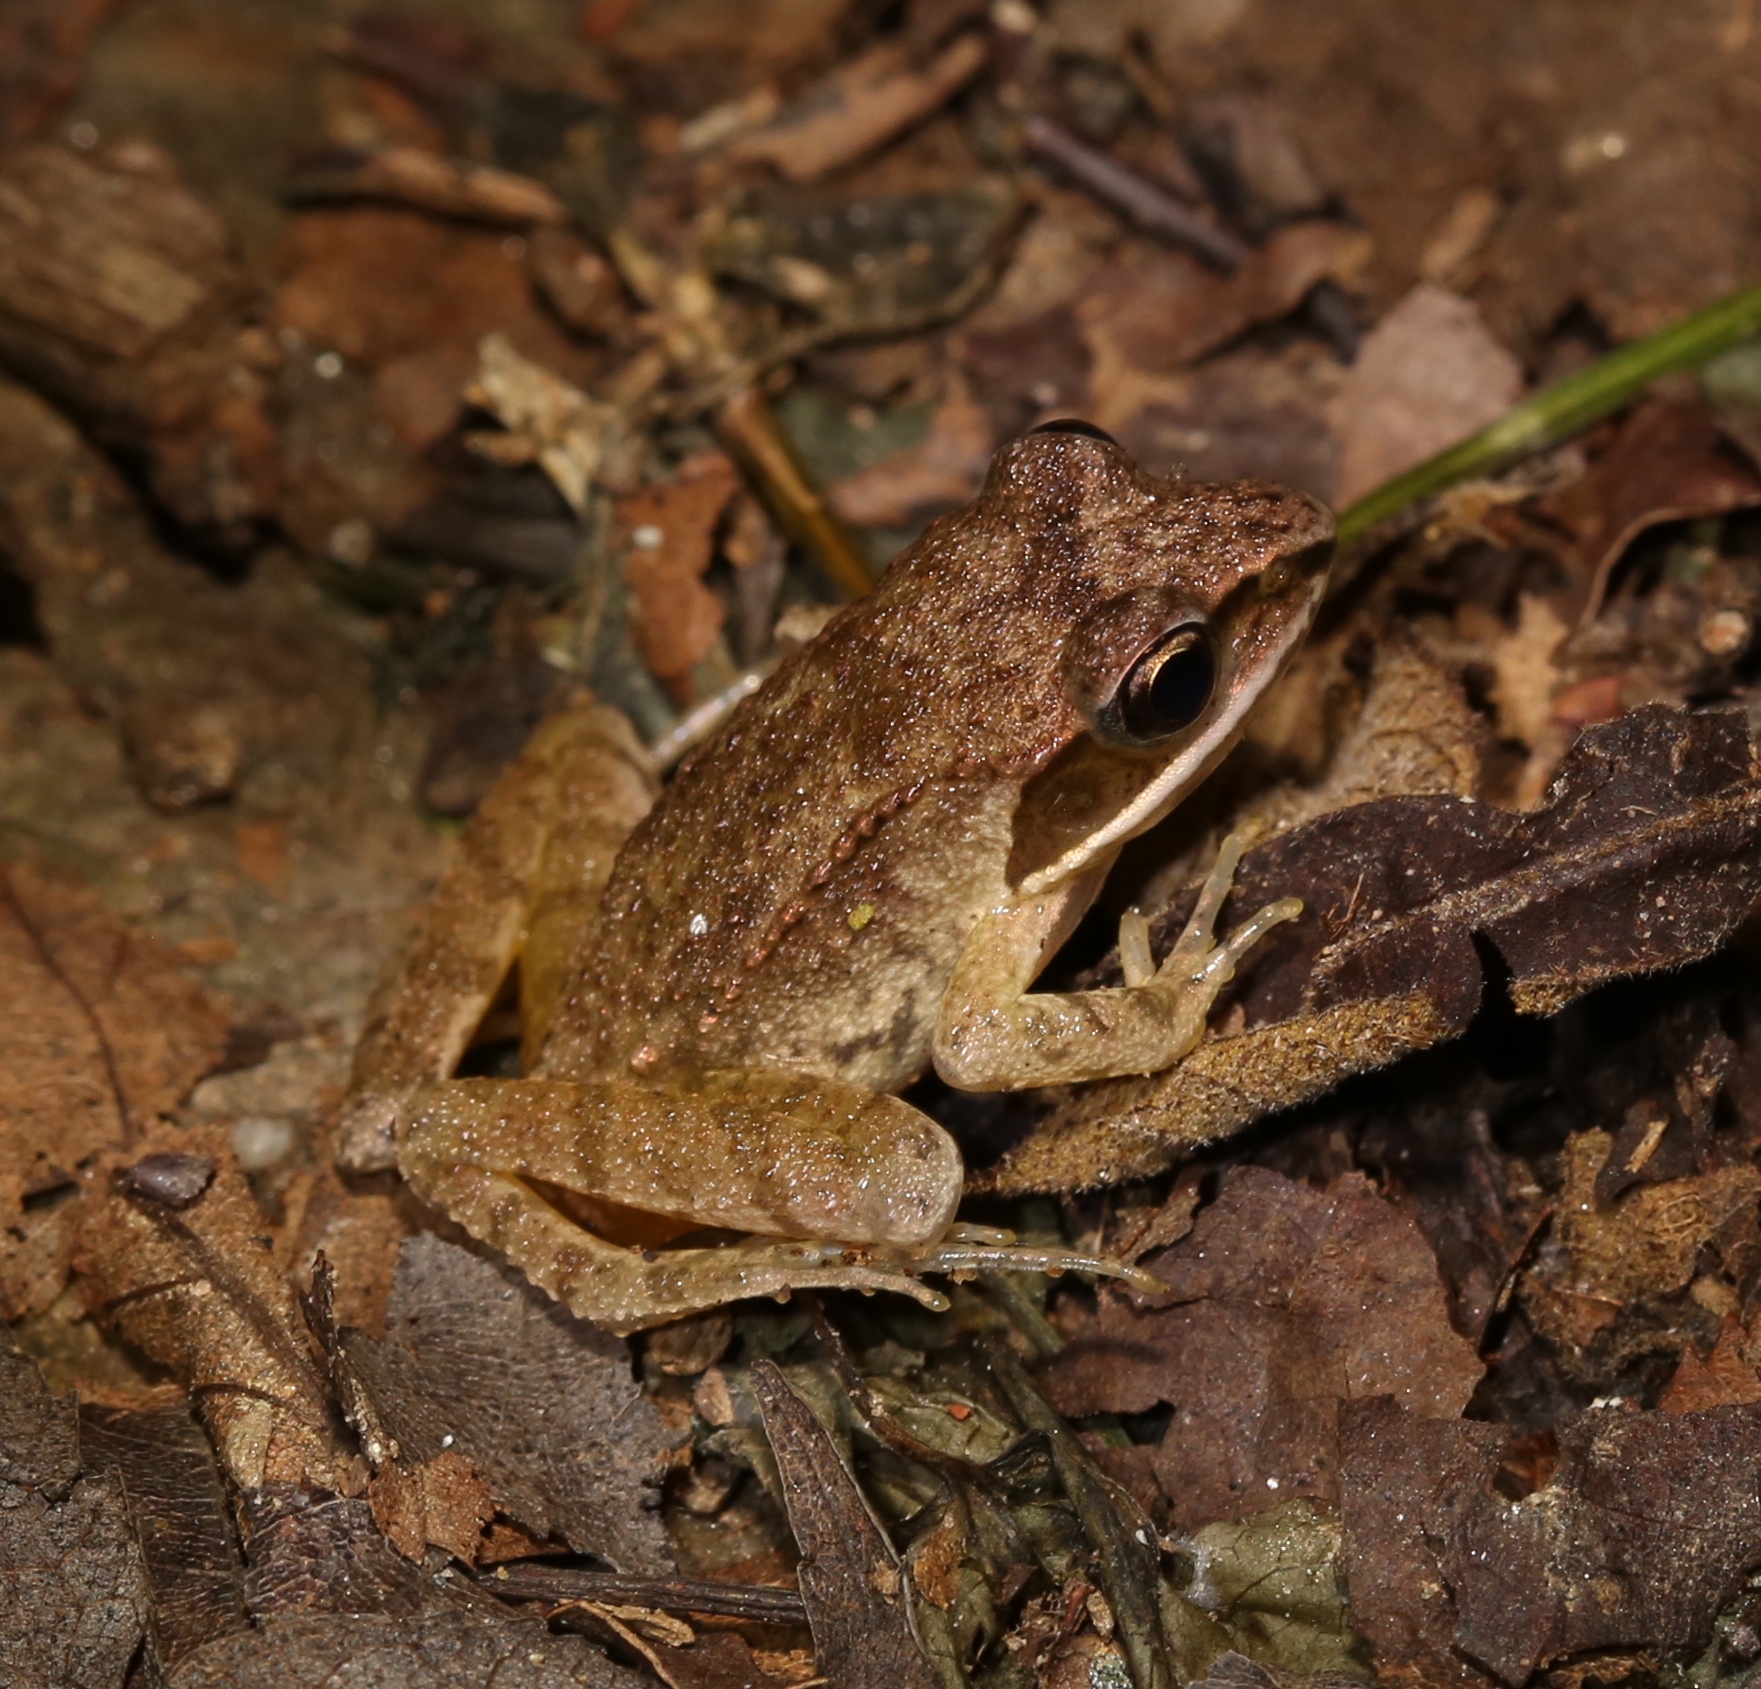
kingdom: Animalia
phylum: Chordata
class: Amphibia
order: Anura
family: Ranidae
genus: Lithobates
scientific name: Lithobates sylvaticus
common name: Wood frog
